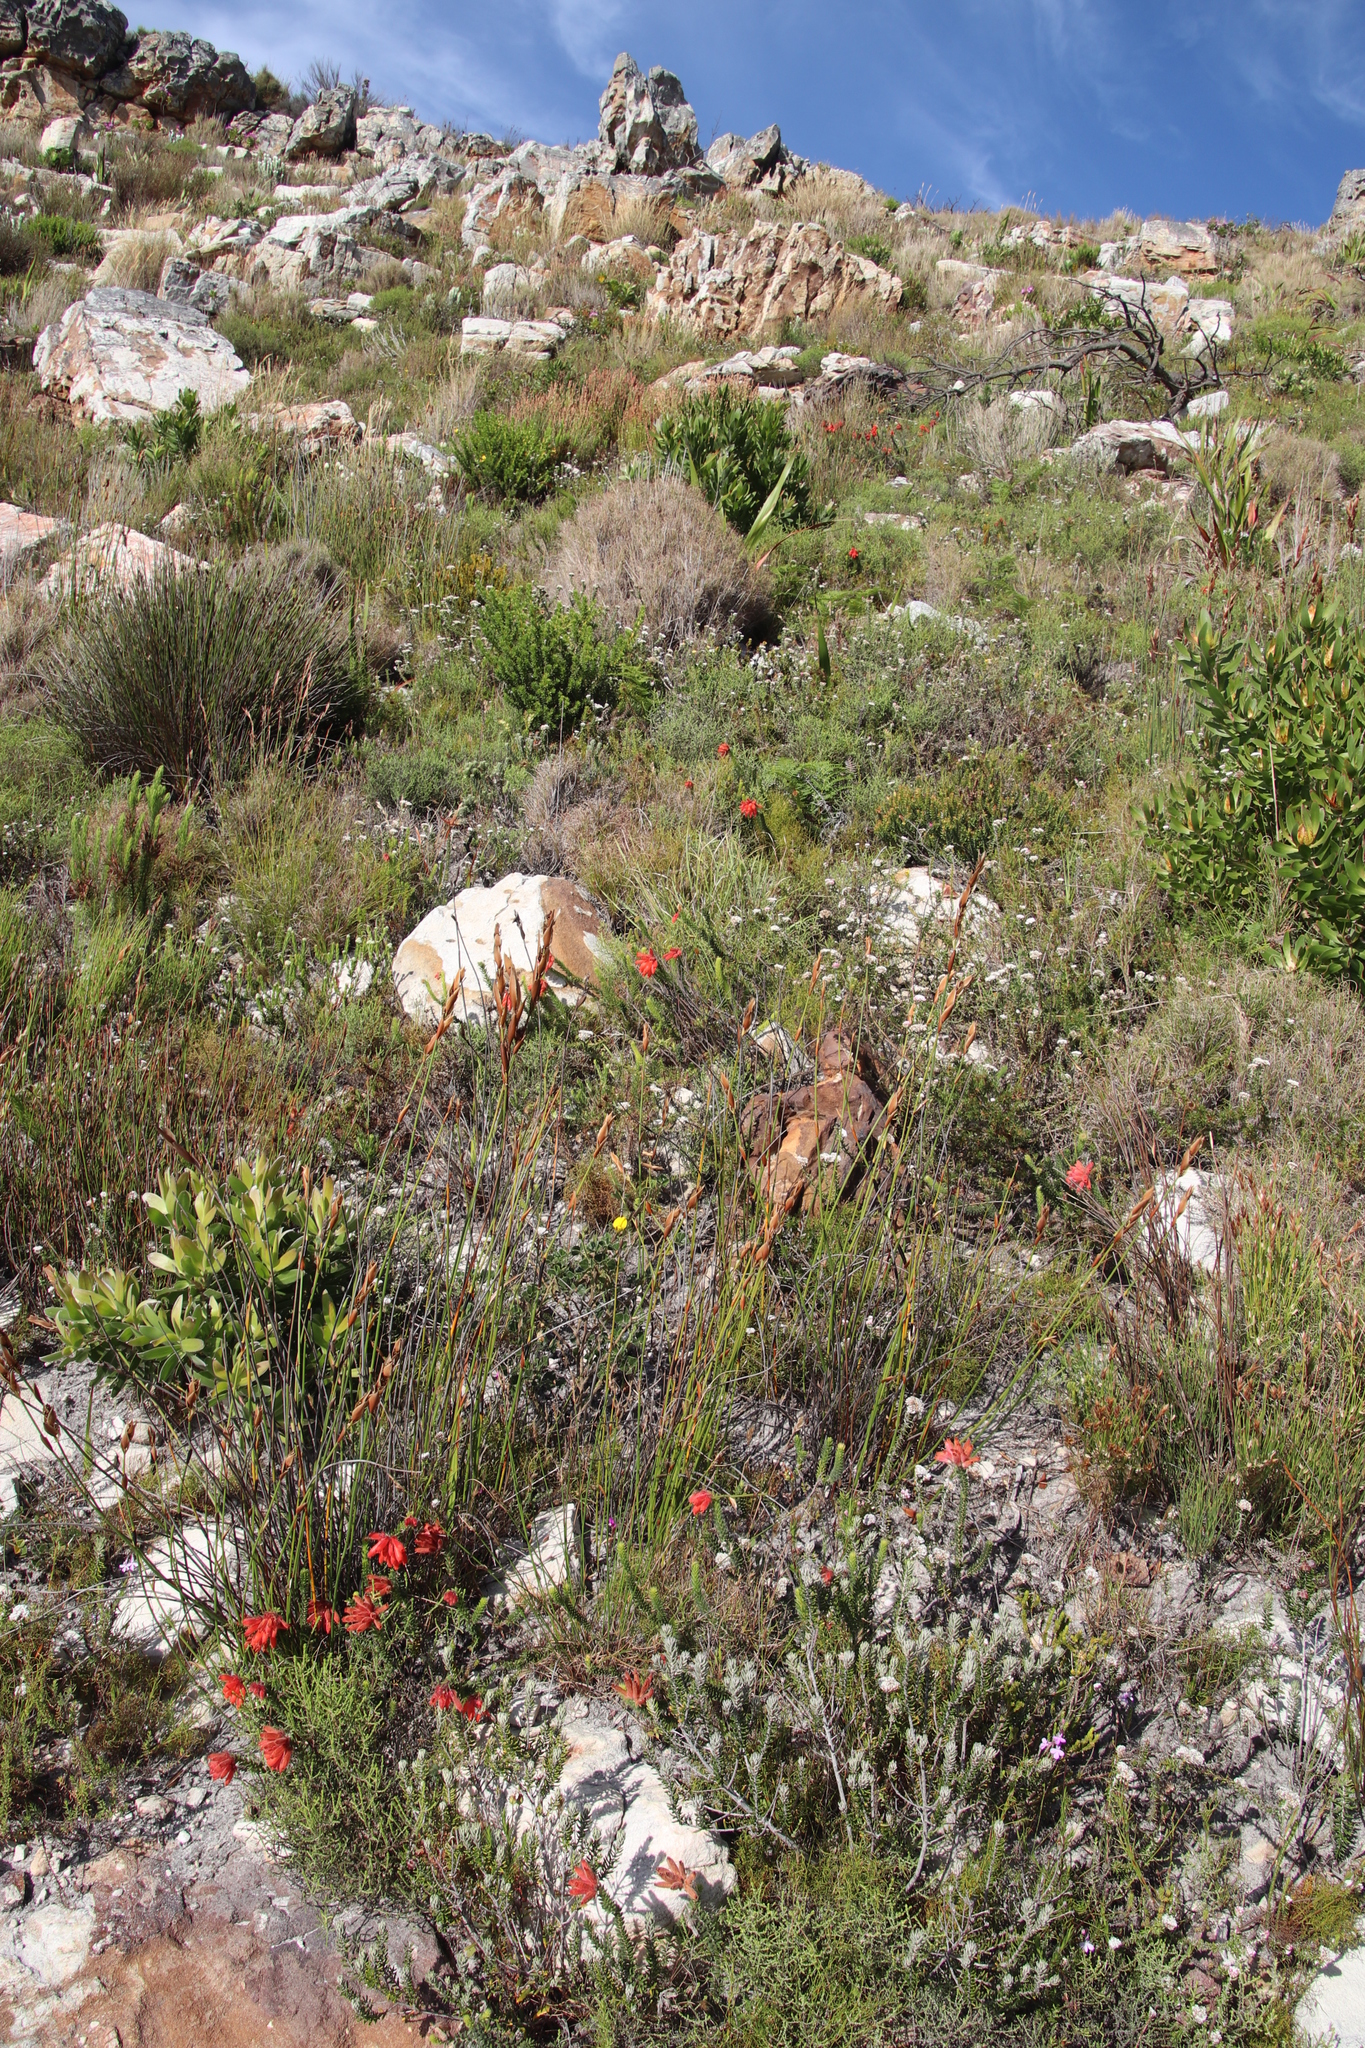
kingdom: Plantae
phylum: Tracheophyta
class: Magnoliopsida
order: Ericales
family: Ericaceae
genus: Erica
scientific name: Erica cerinthoides
